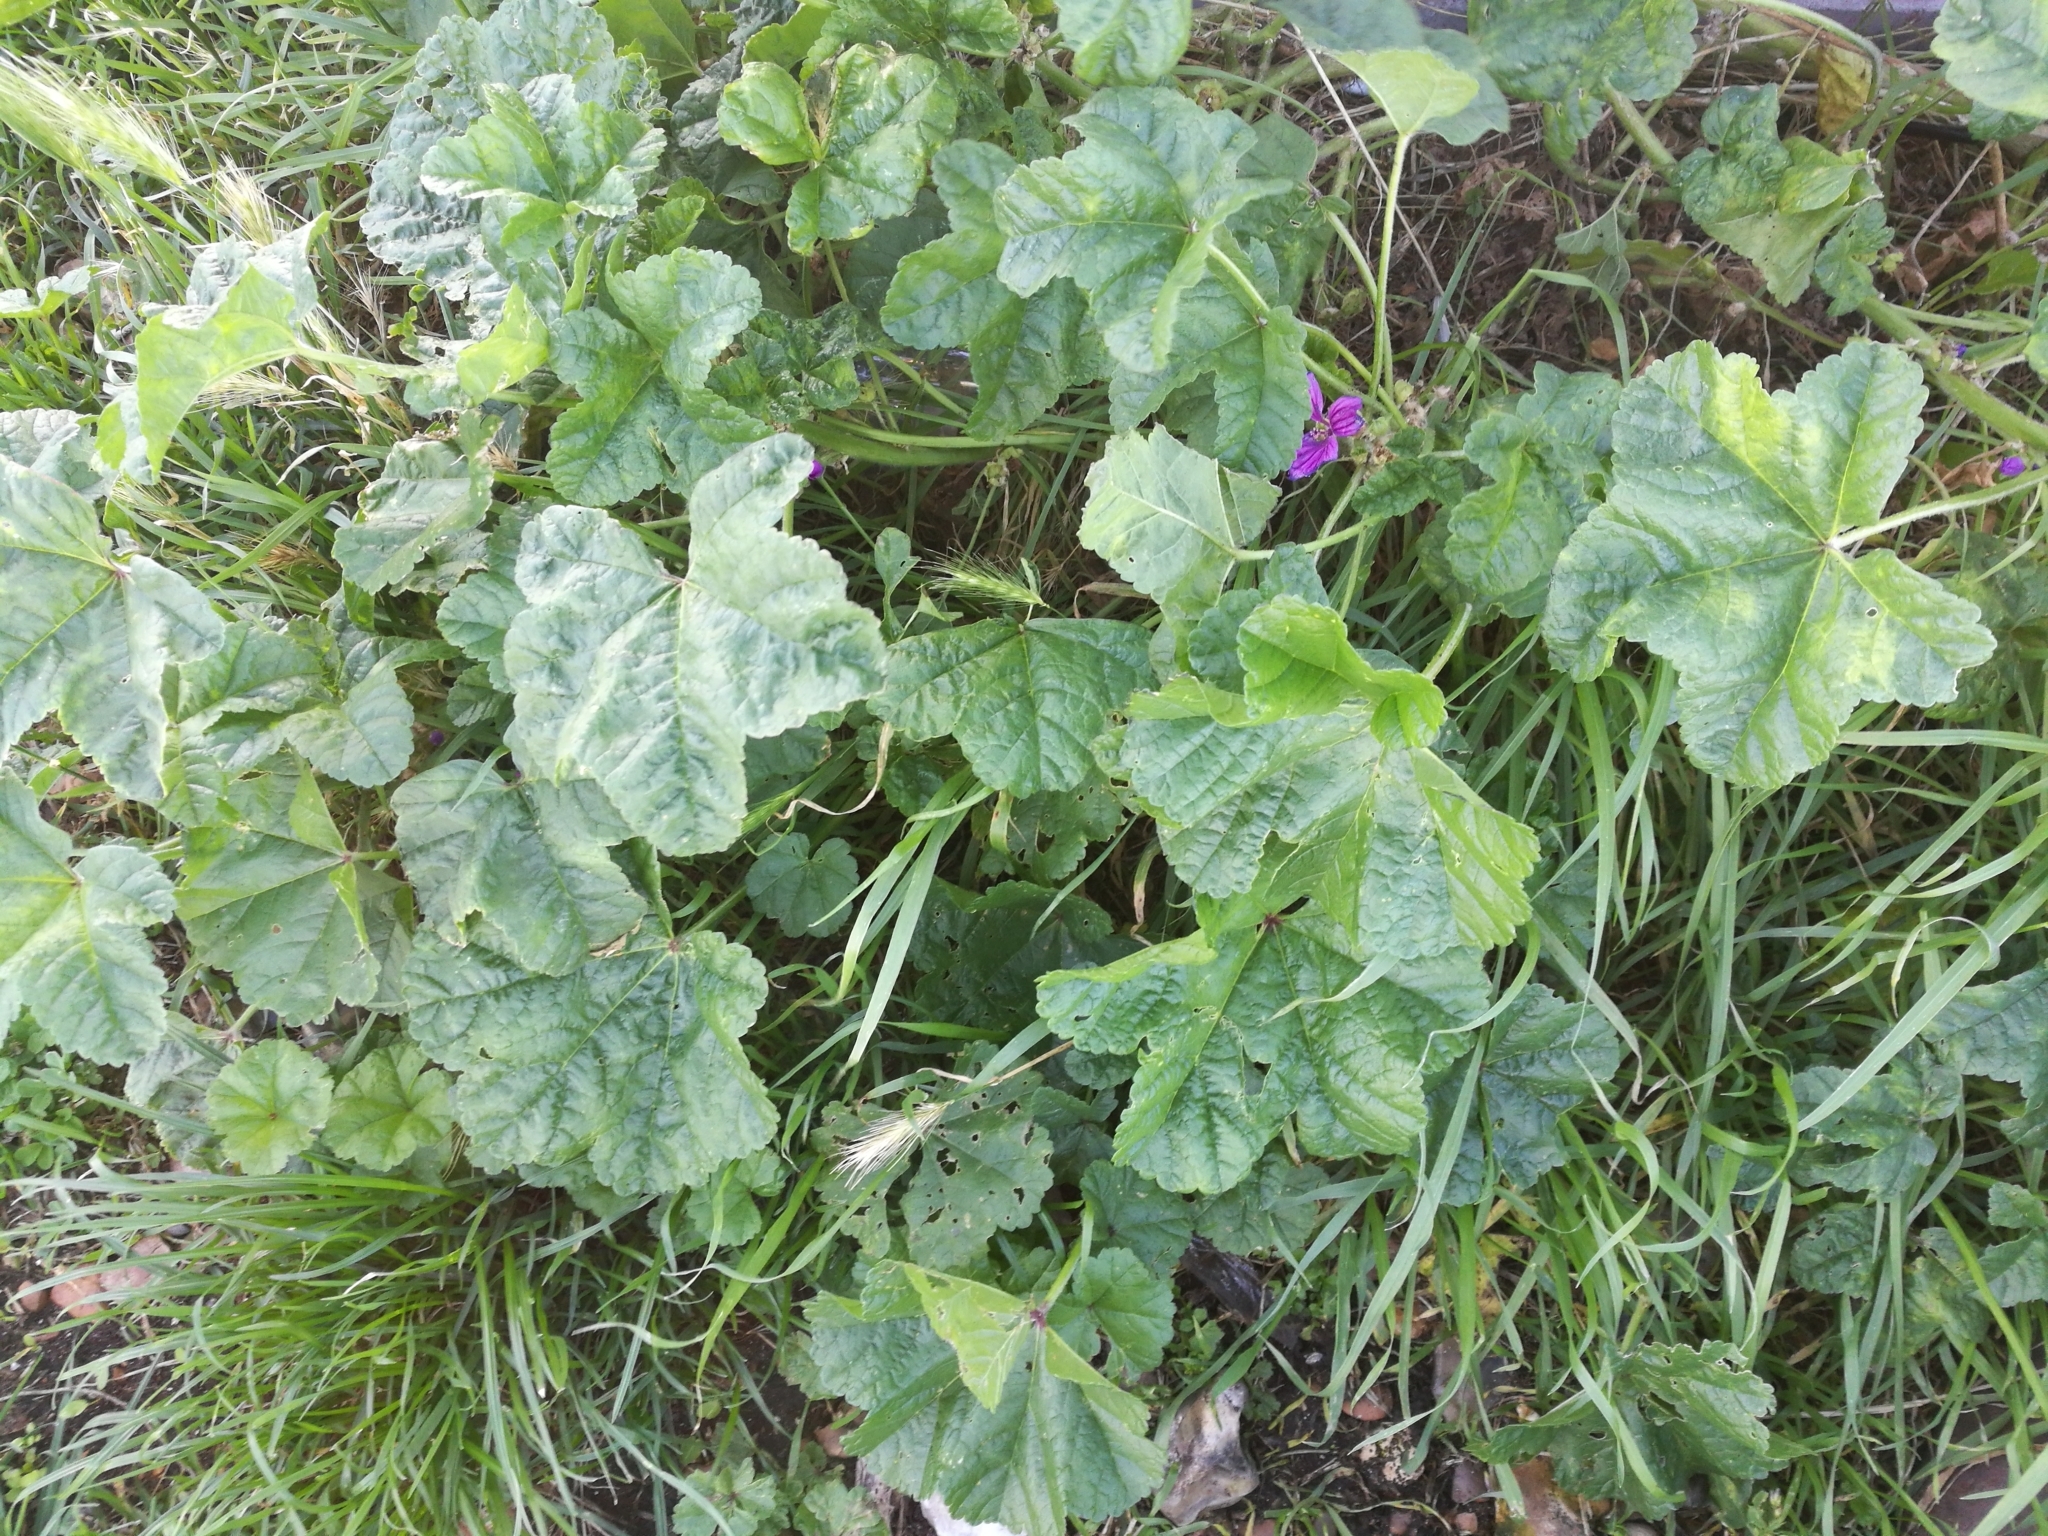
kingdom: Plantae
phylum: Tracheophyta
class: Magnoliopsida
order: Malvales
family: Malvaceae
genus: Malva
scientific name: Malva sylvestris
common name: Common mallow
